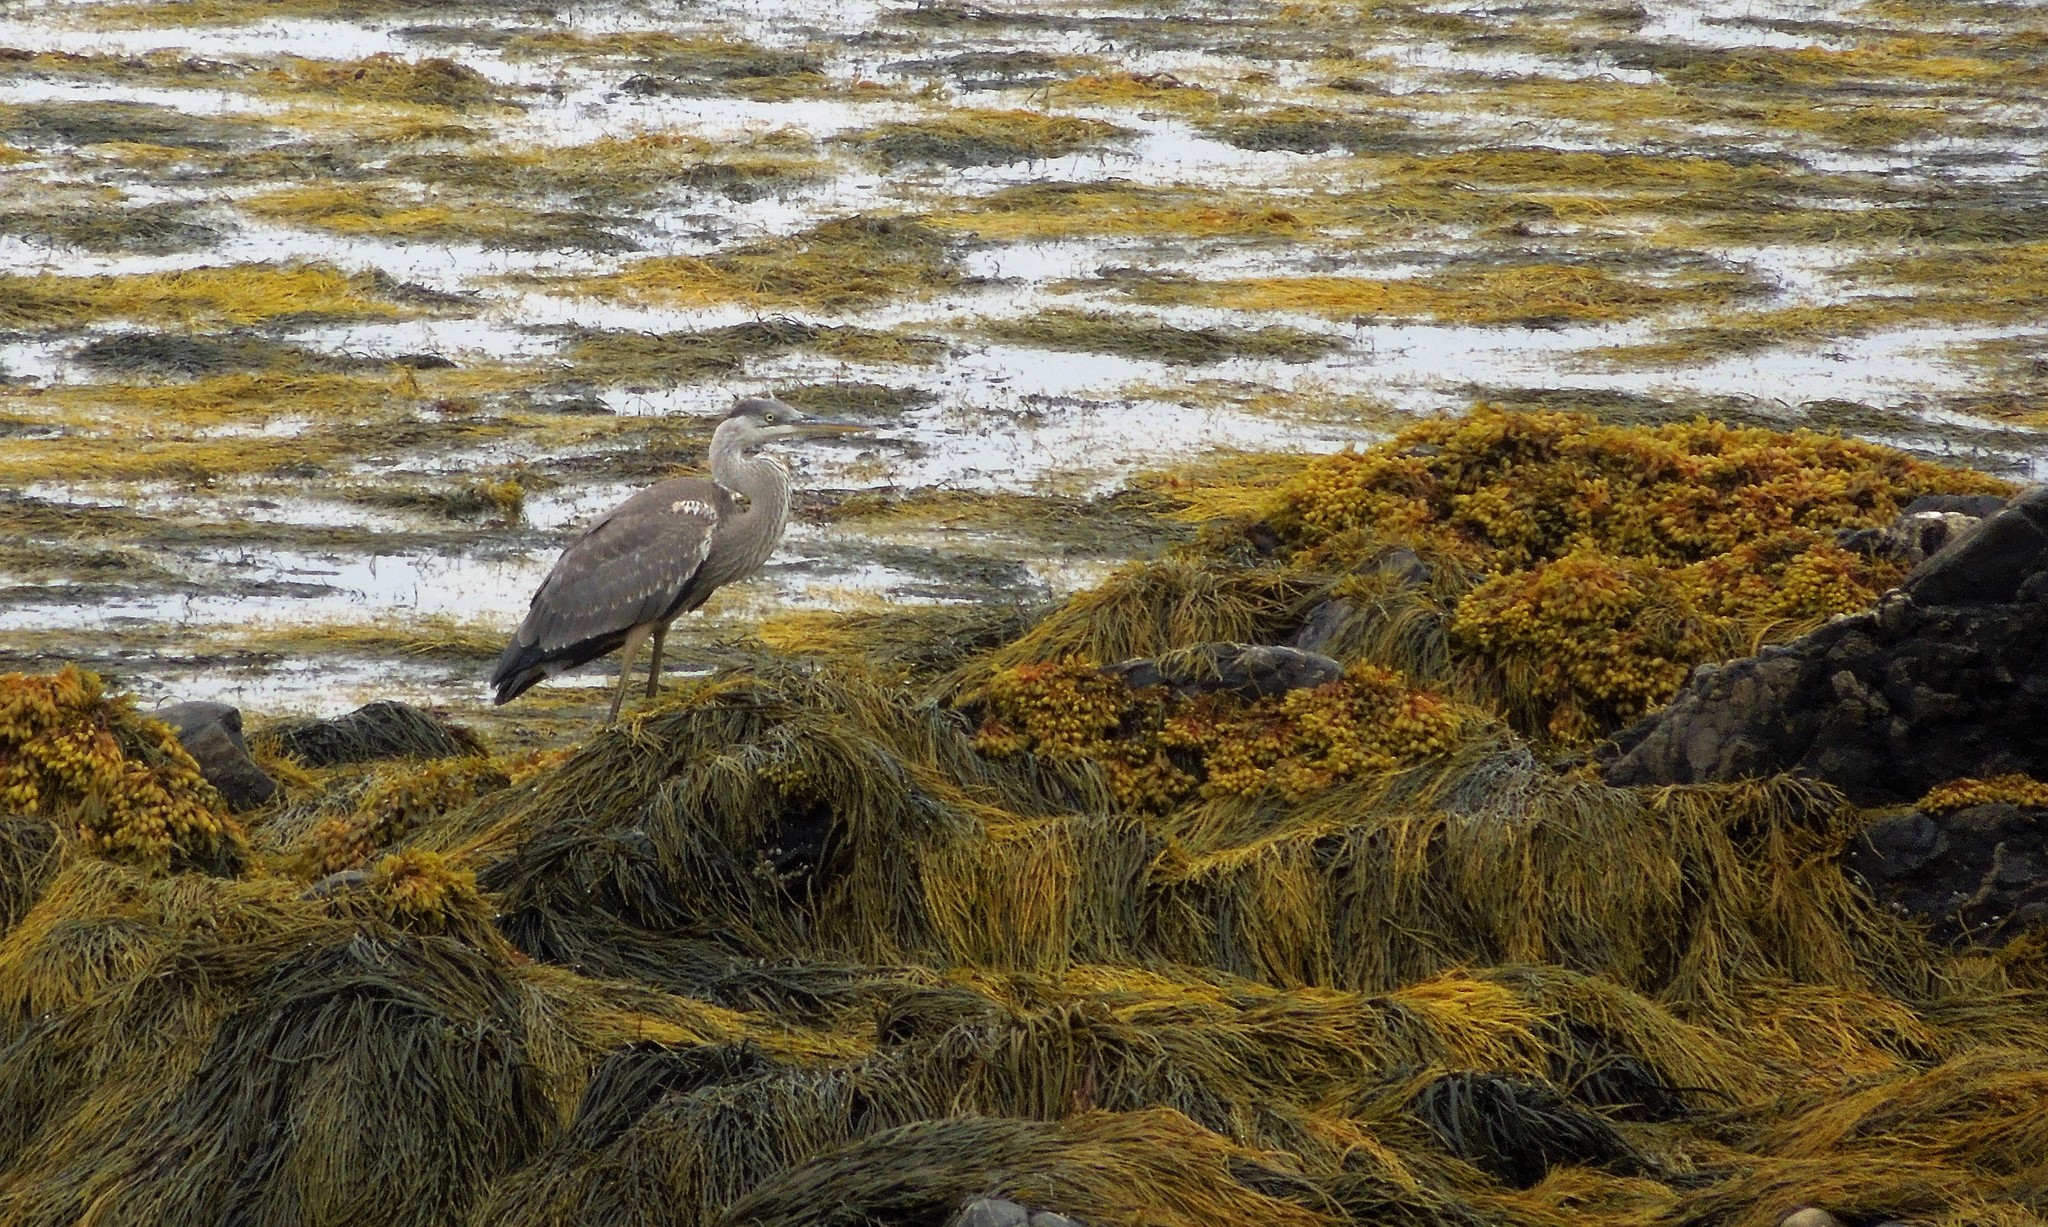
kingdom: Animalia
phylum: Chordata
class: Aves
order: Pelecaniformes
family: Ardeidae
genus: Ardea
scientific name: Ardea herodias
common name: Great blue heron
